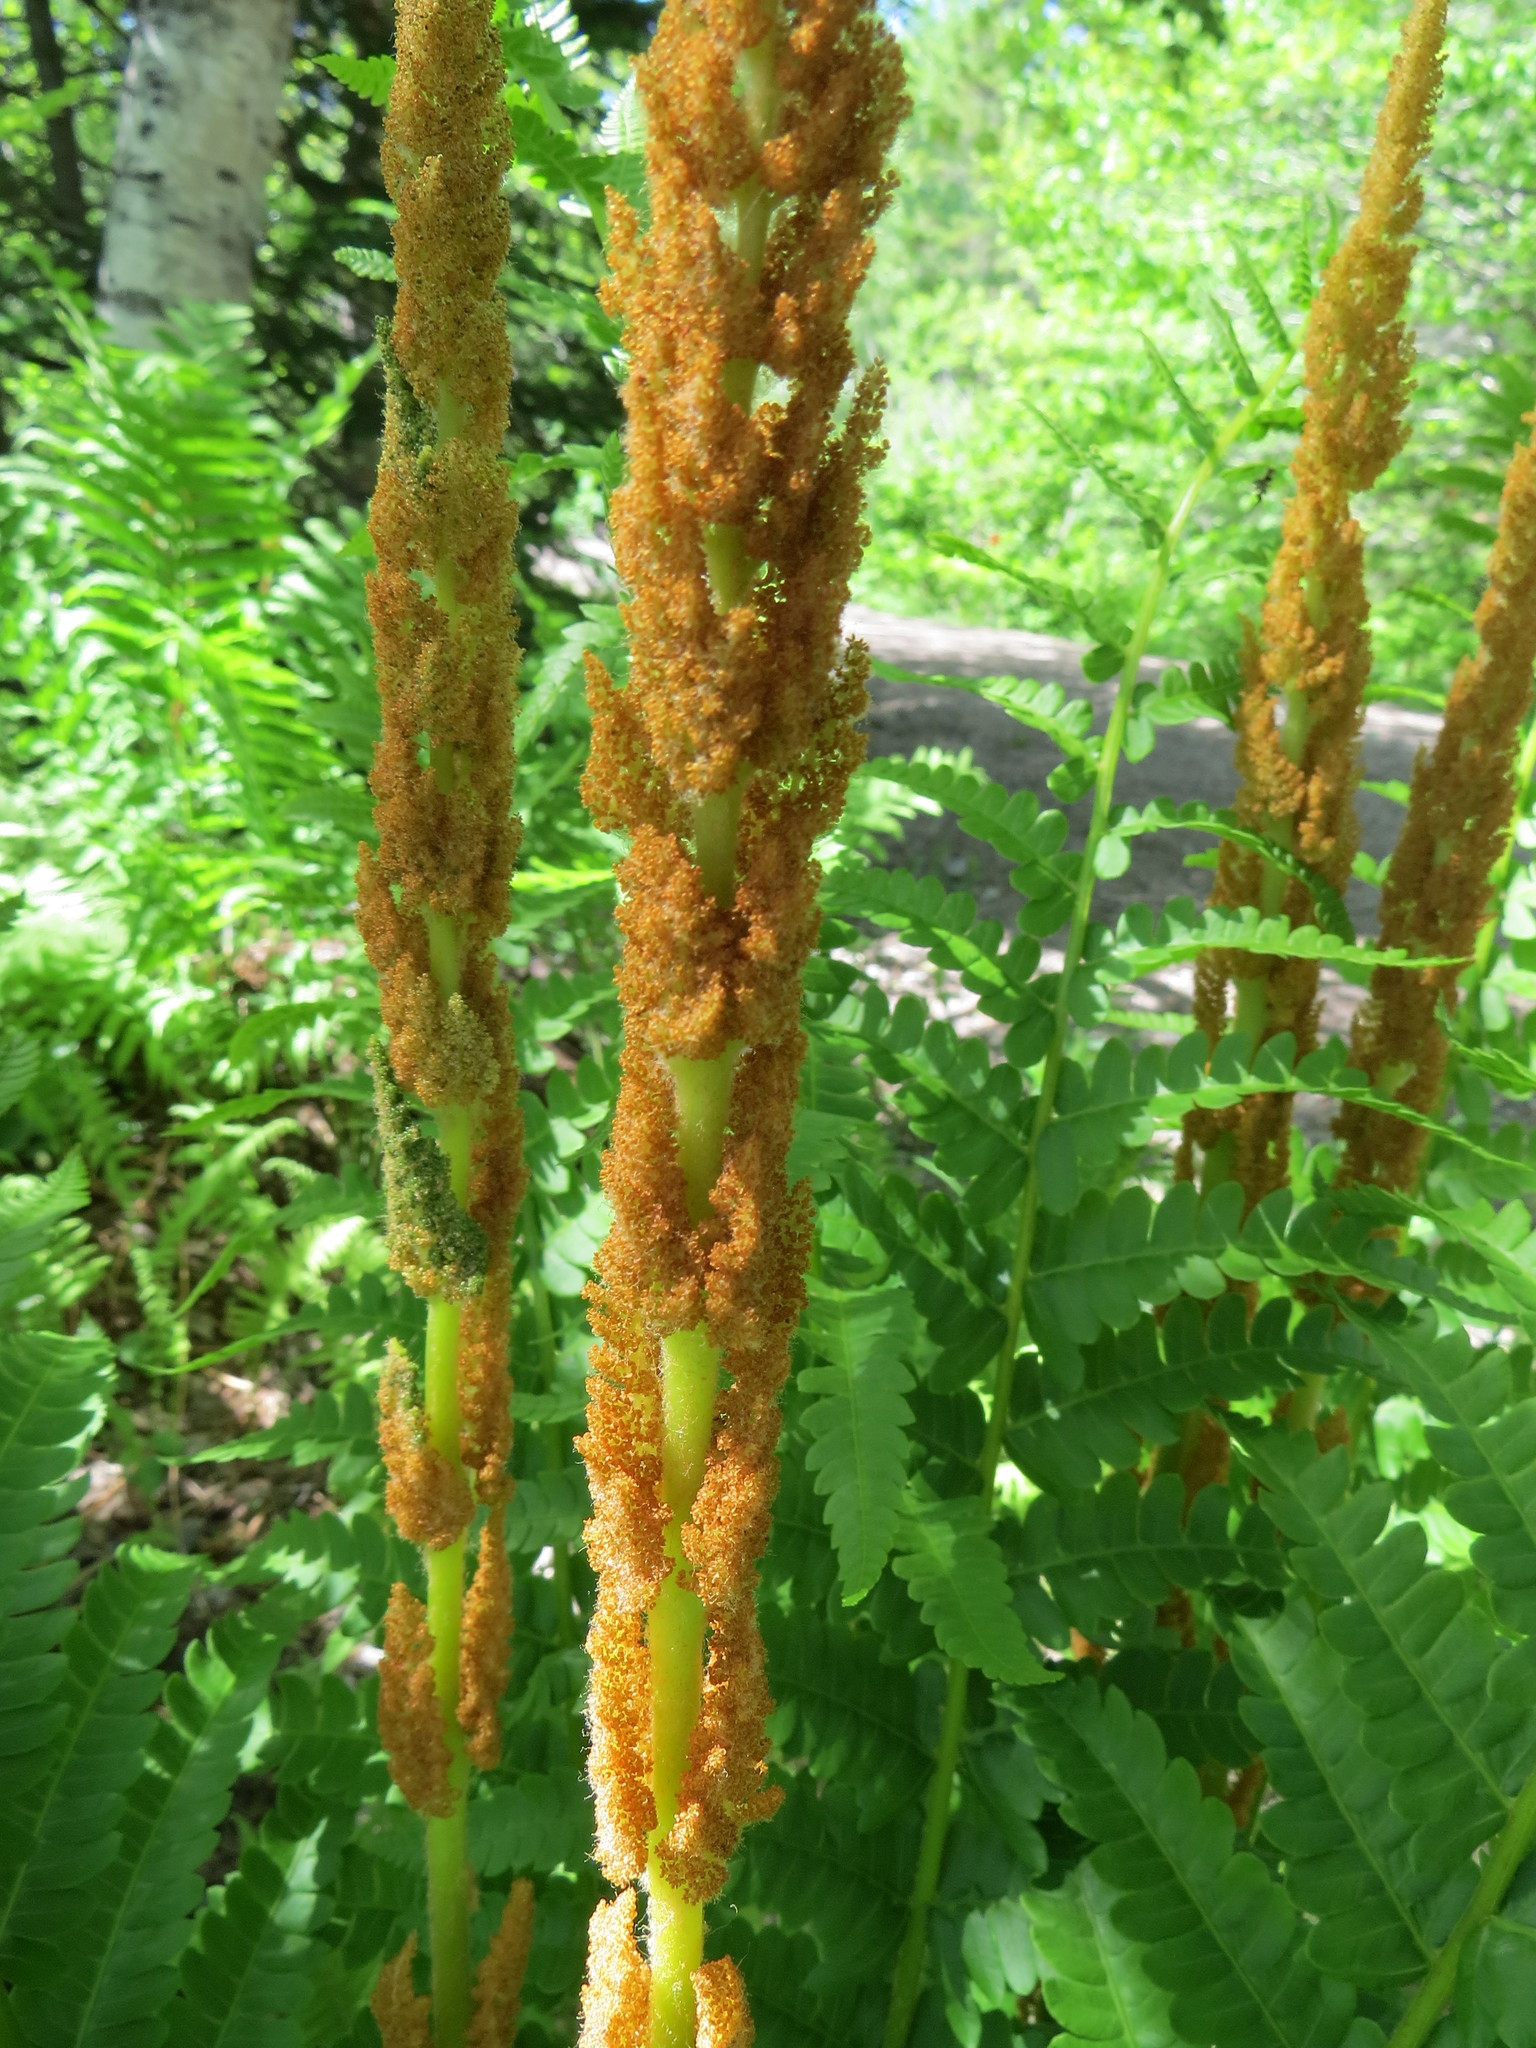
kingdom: Plantae
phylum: Tracheophyta
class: Polypodiopsida
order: Osmundales
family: Osmundaceae
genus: Osmundastrum
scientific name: Osmundastrum cinnamomeum
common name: Cinnamon fern
